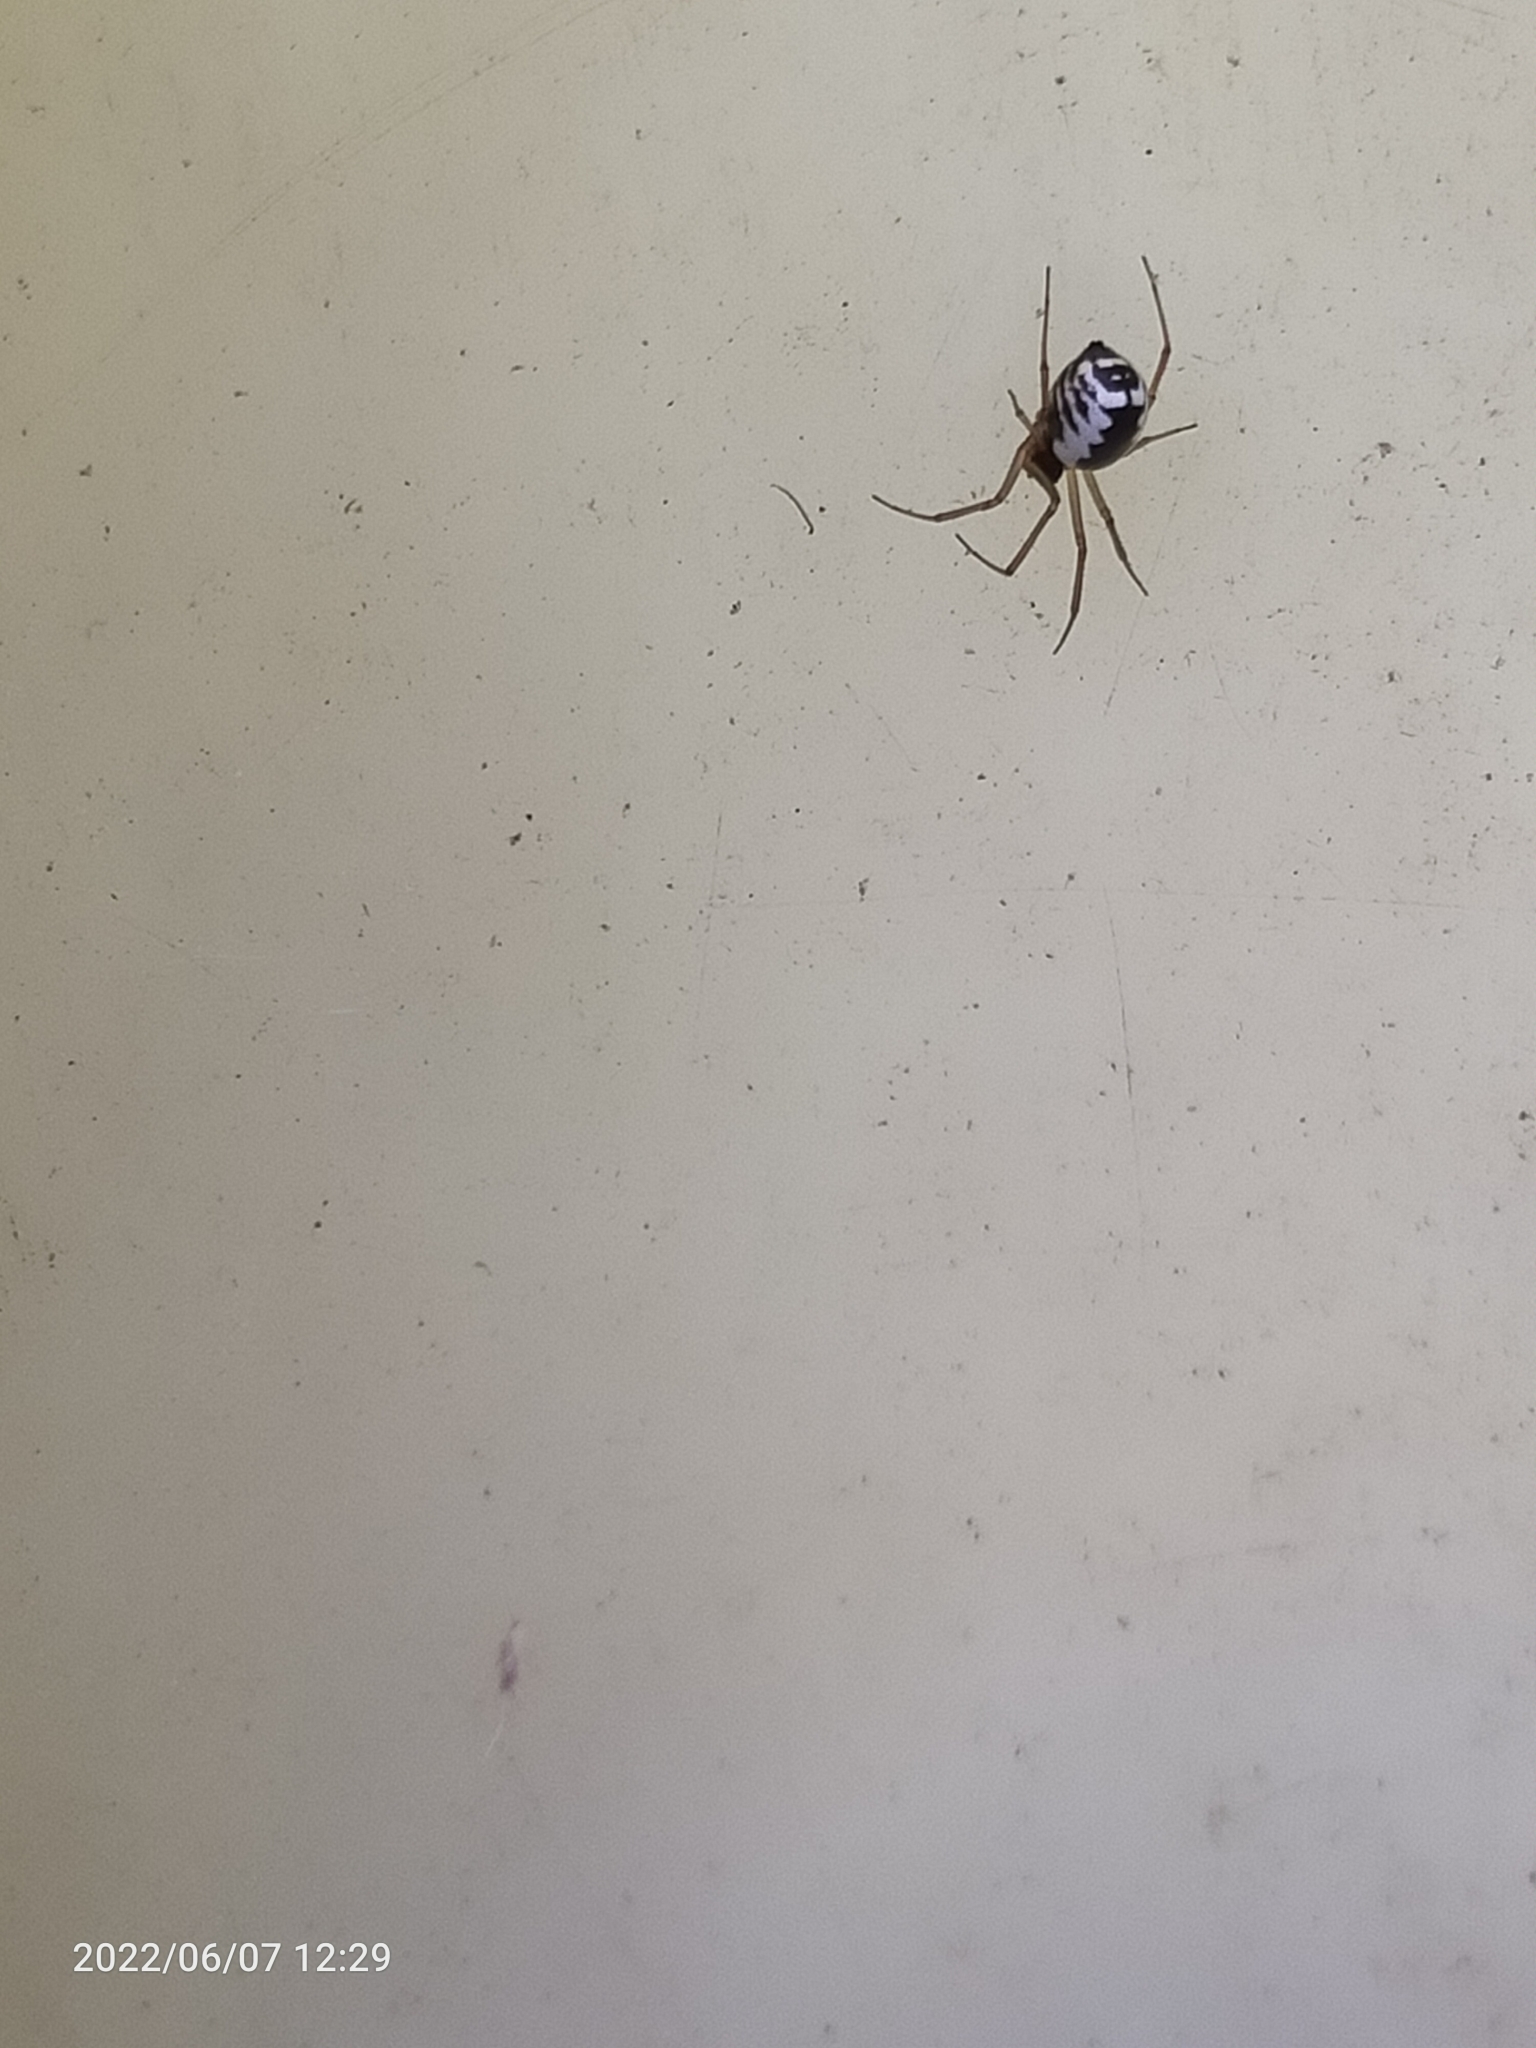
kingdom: Animalia
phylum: Arthropoda
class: Arachnida
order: Araneae
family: Linyphiidae
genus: Frontinellina
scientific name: Frontinellina frutetorum
